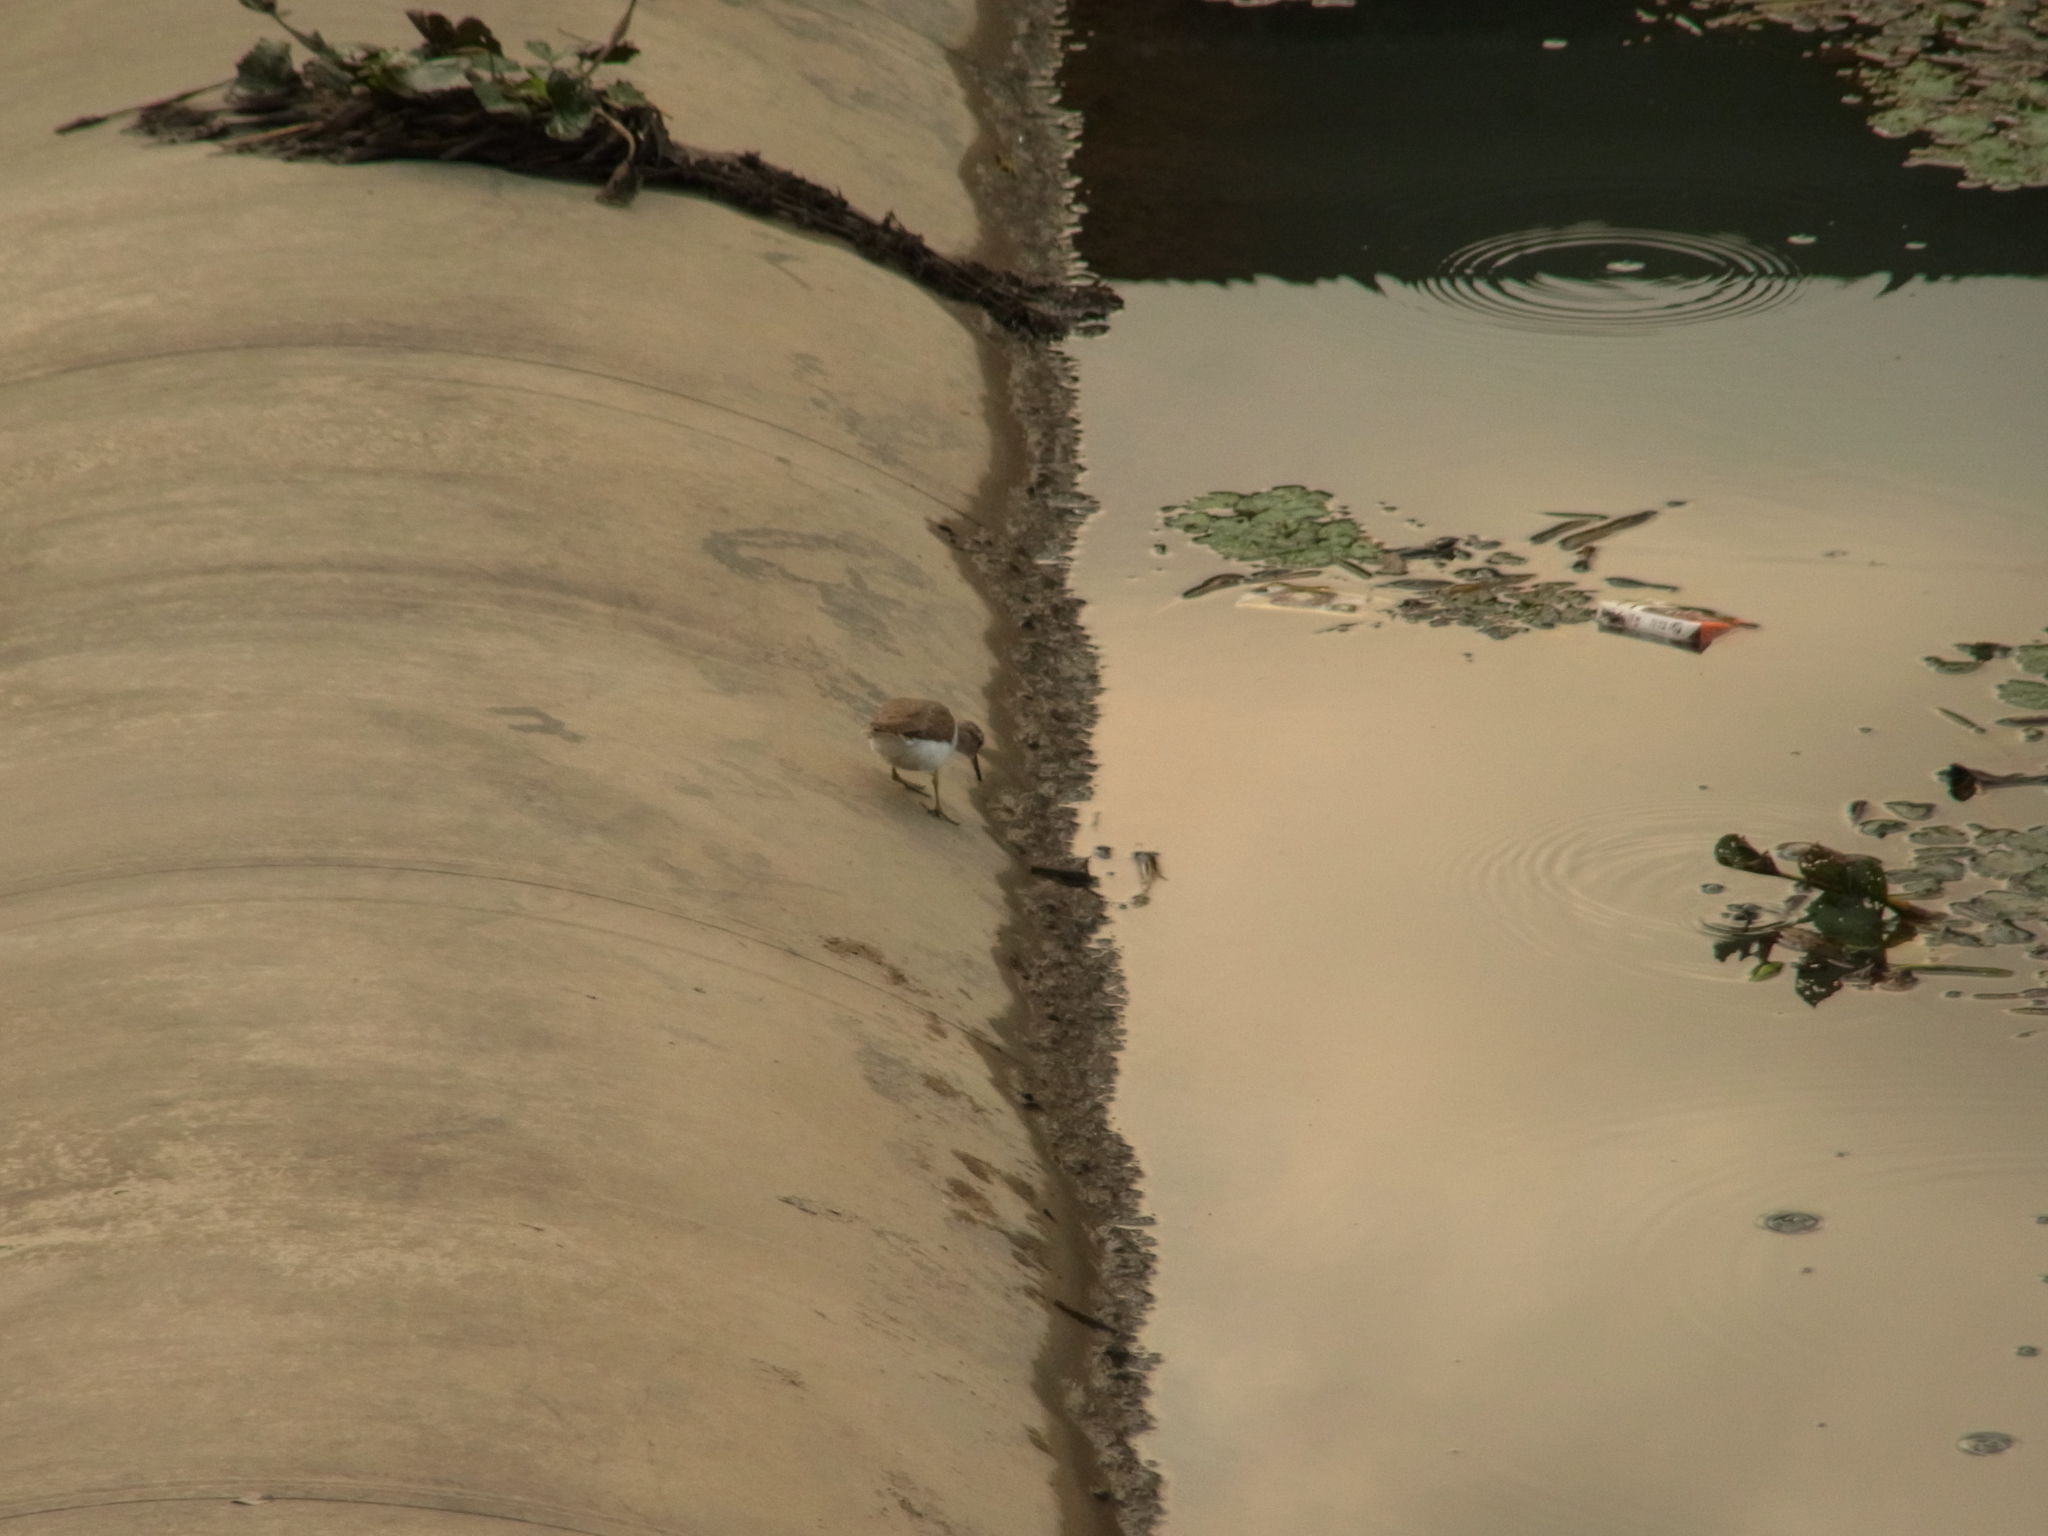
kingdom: Animalia
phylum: Chordata
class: Aves
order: Charadriiformes
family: Scolopacidae
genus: Actitis
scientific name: Actitis hypoleucos
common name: Common sandpiper
